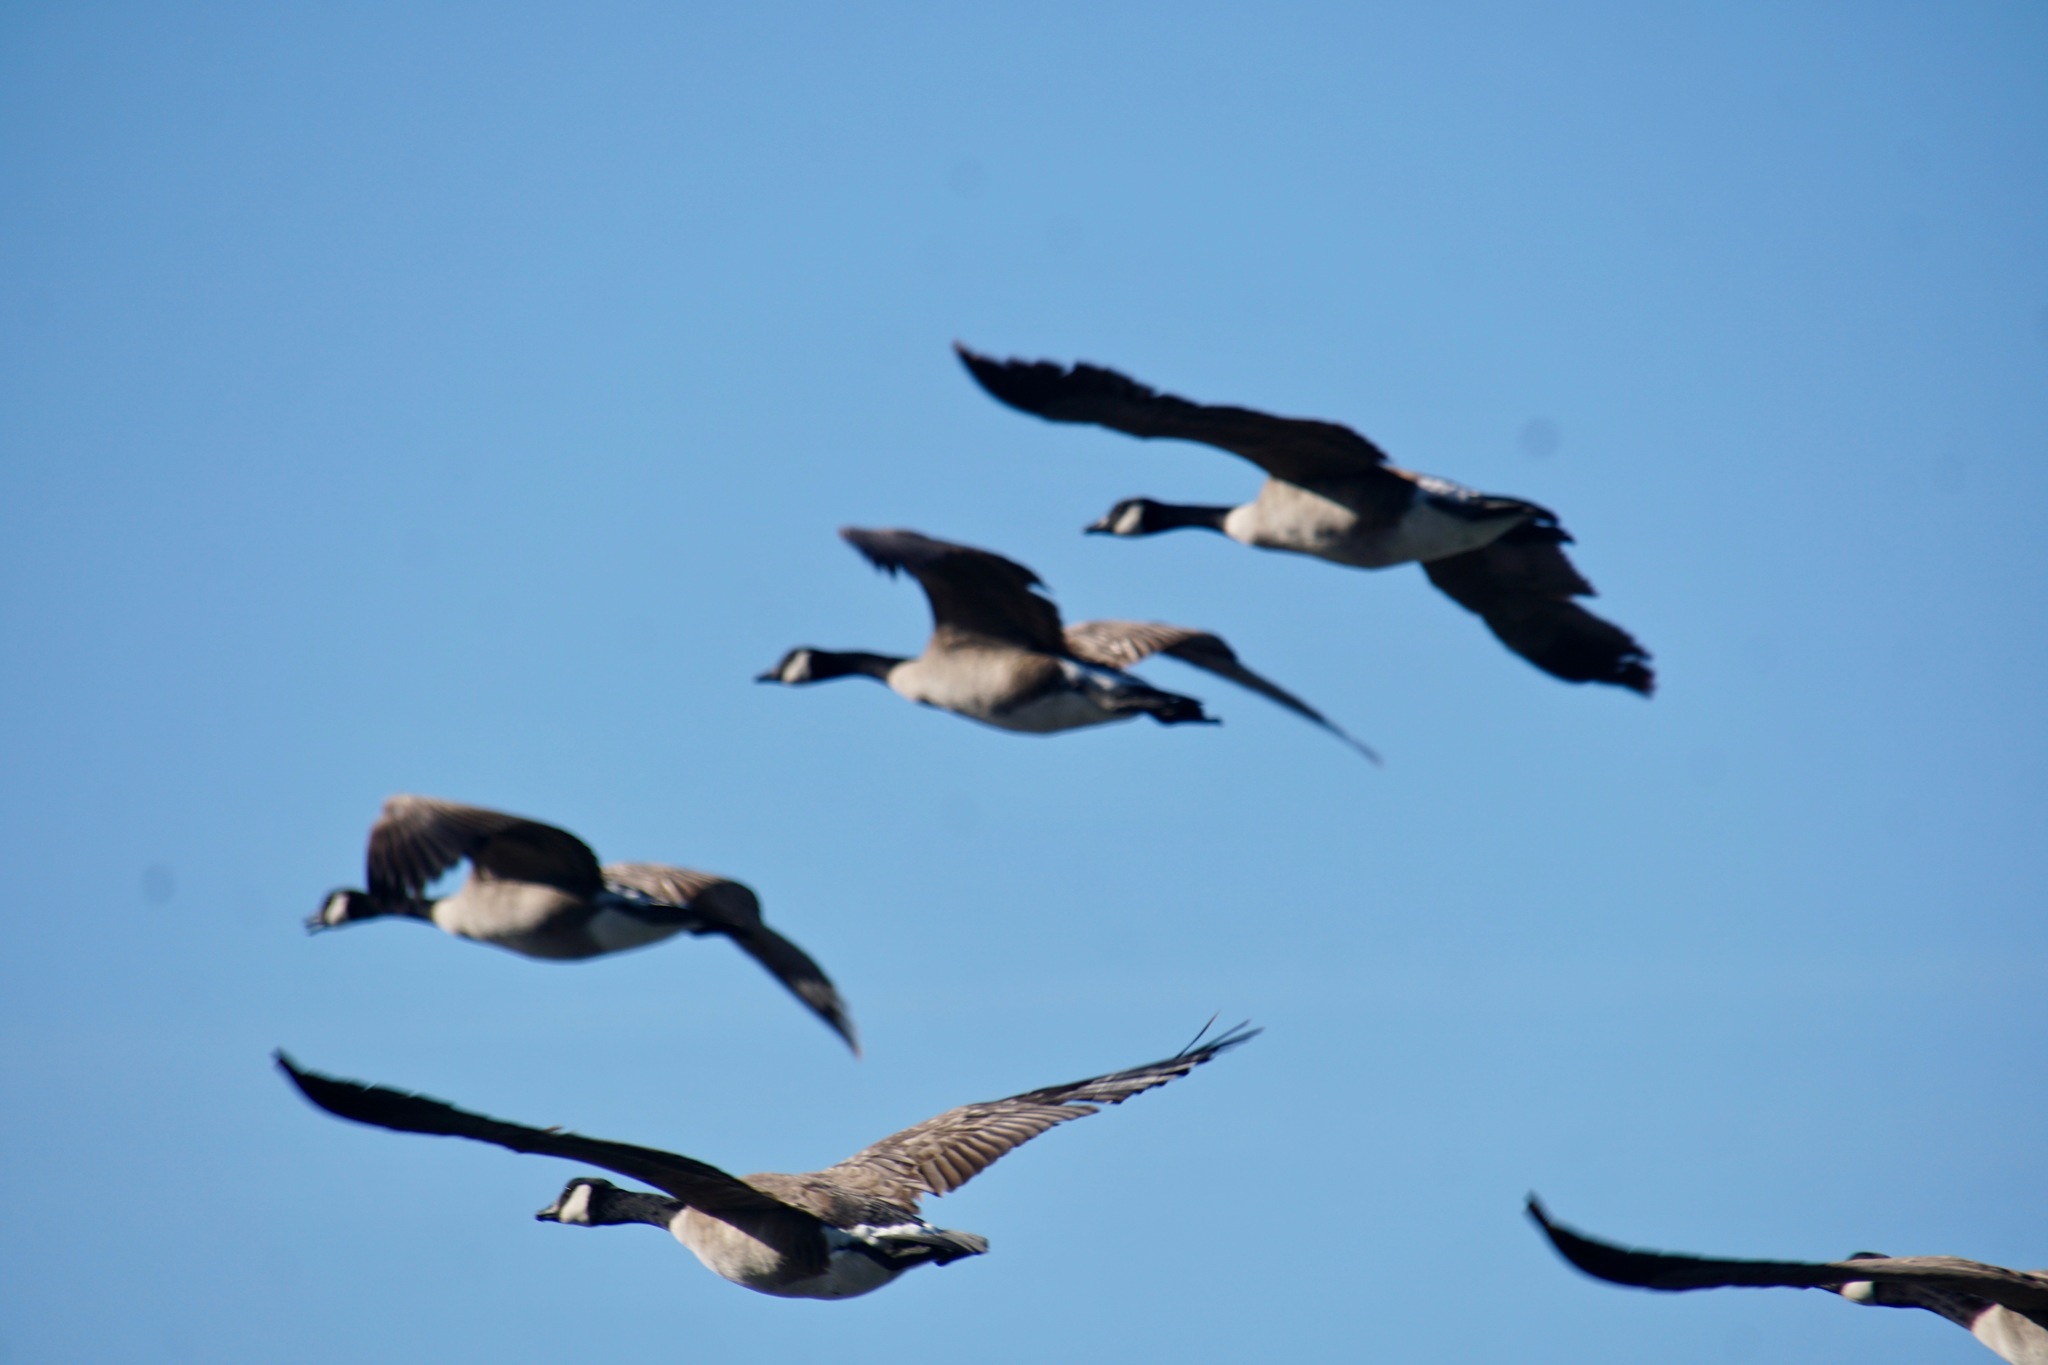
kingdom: Animalia
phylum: Chordata
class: Aves
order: Anseriformes
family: Anatidae
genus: Branta
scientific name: Branta canadensis
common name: Canada goose
